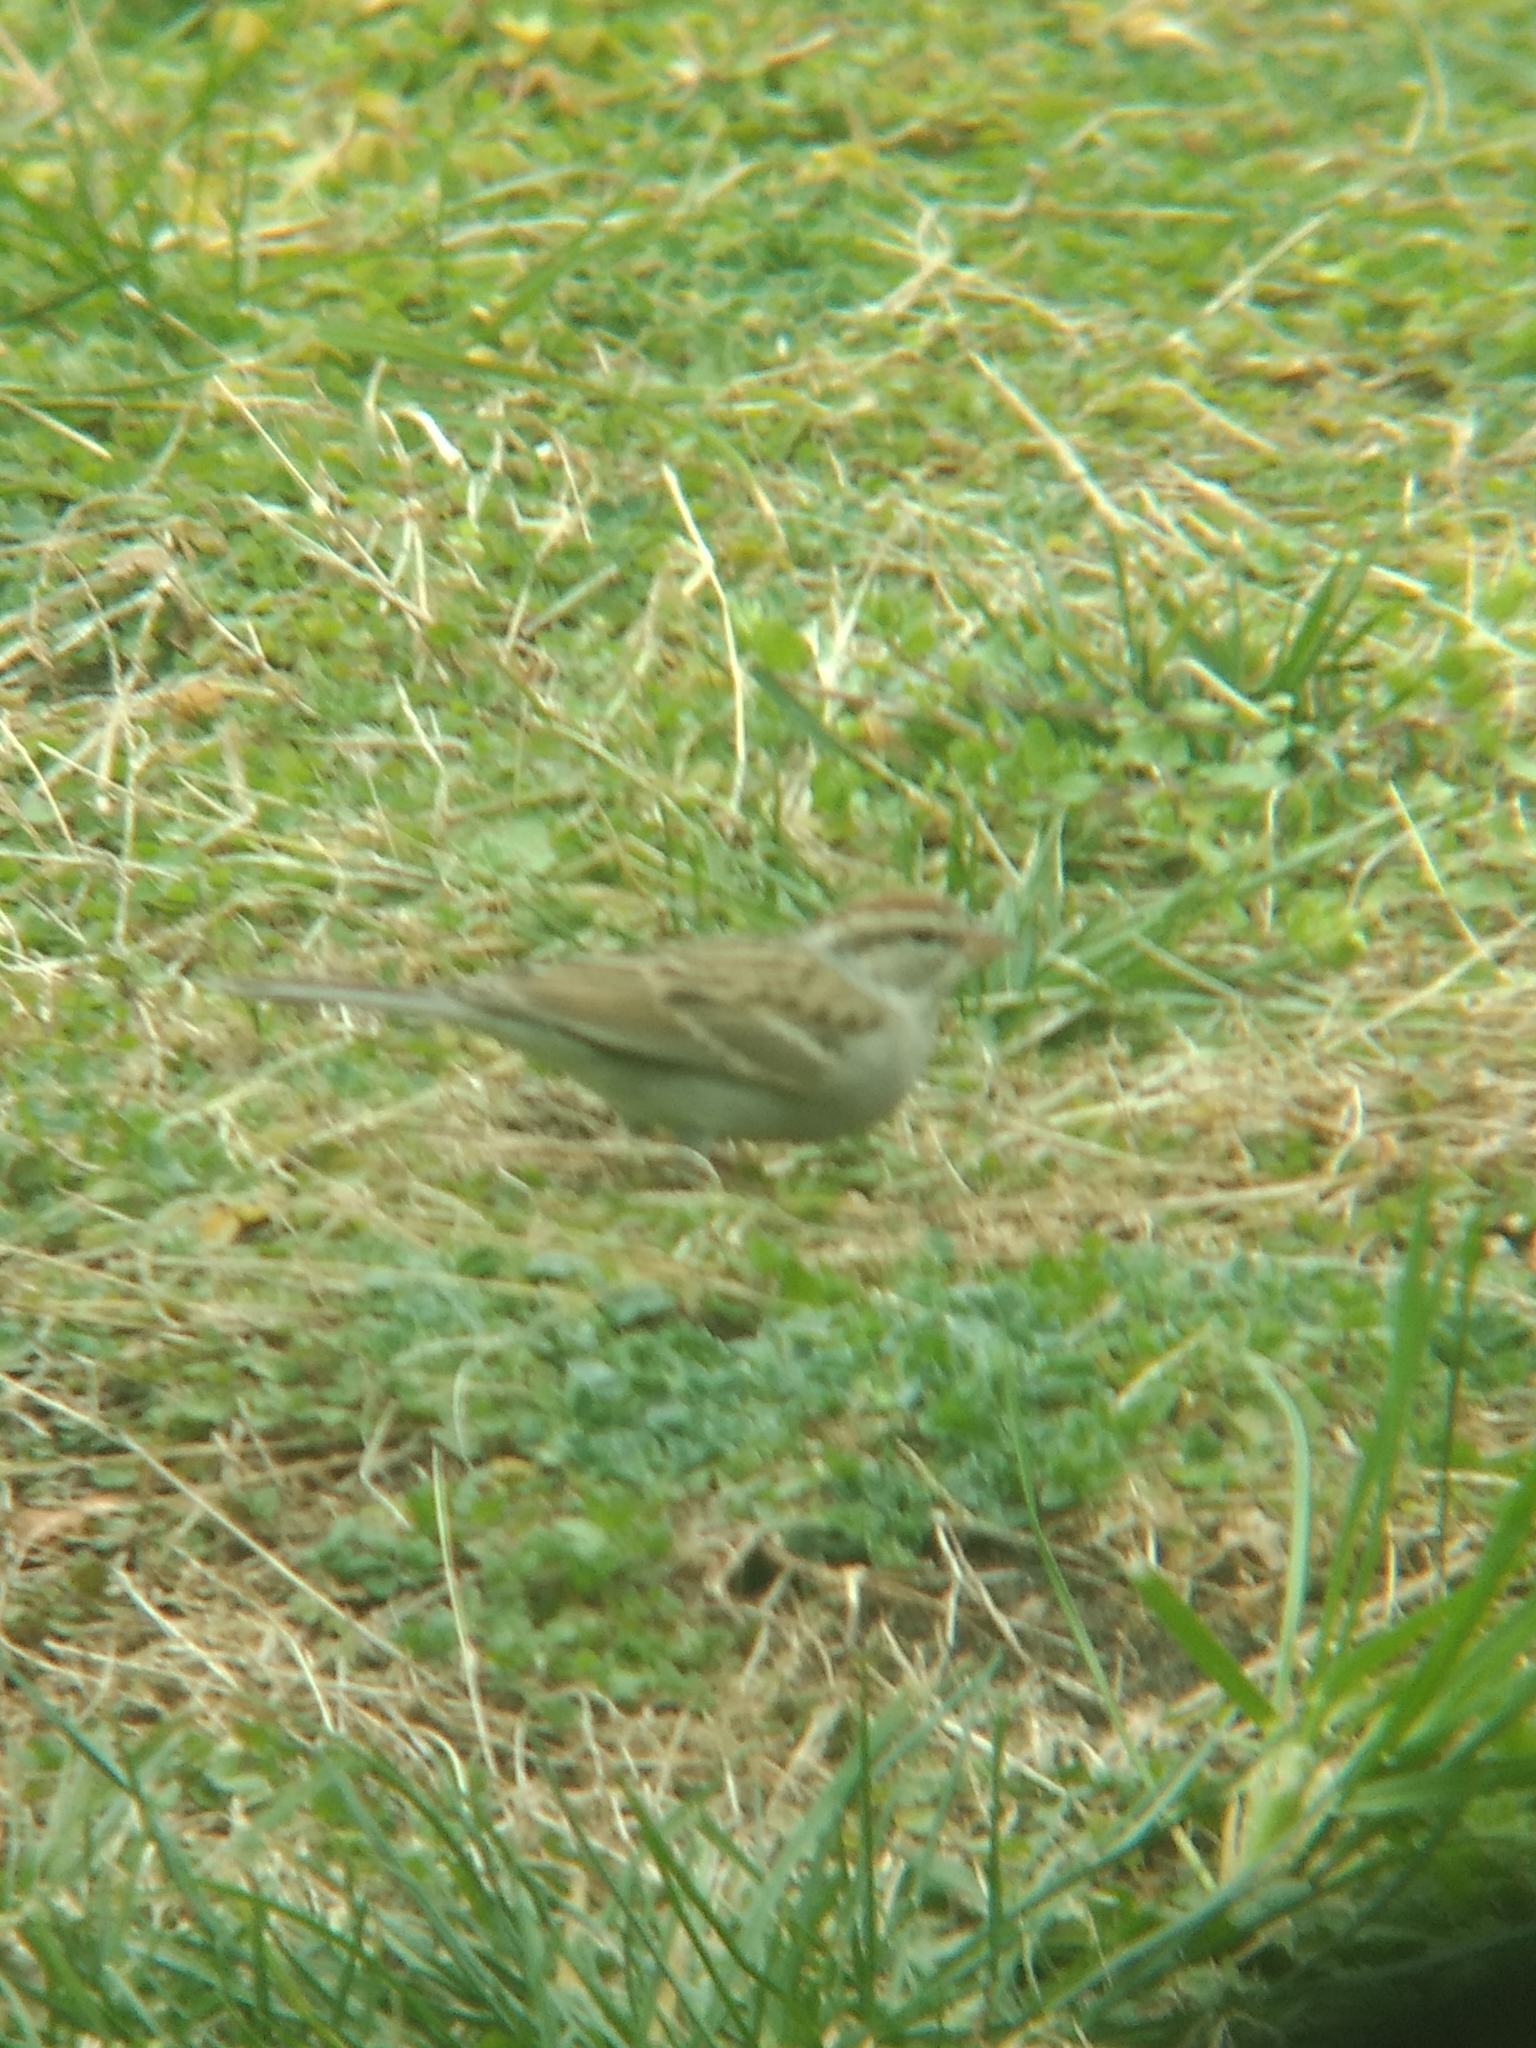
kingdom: Animalia
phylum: Chordata
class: Aves
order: Passeriformes
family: Passerellidae
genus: Spizella
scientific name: Spizella passerina
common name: Chipping sparrow
